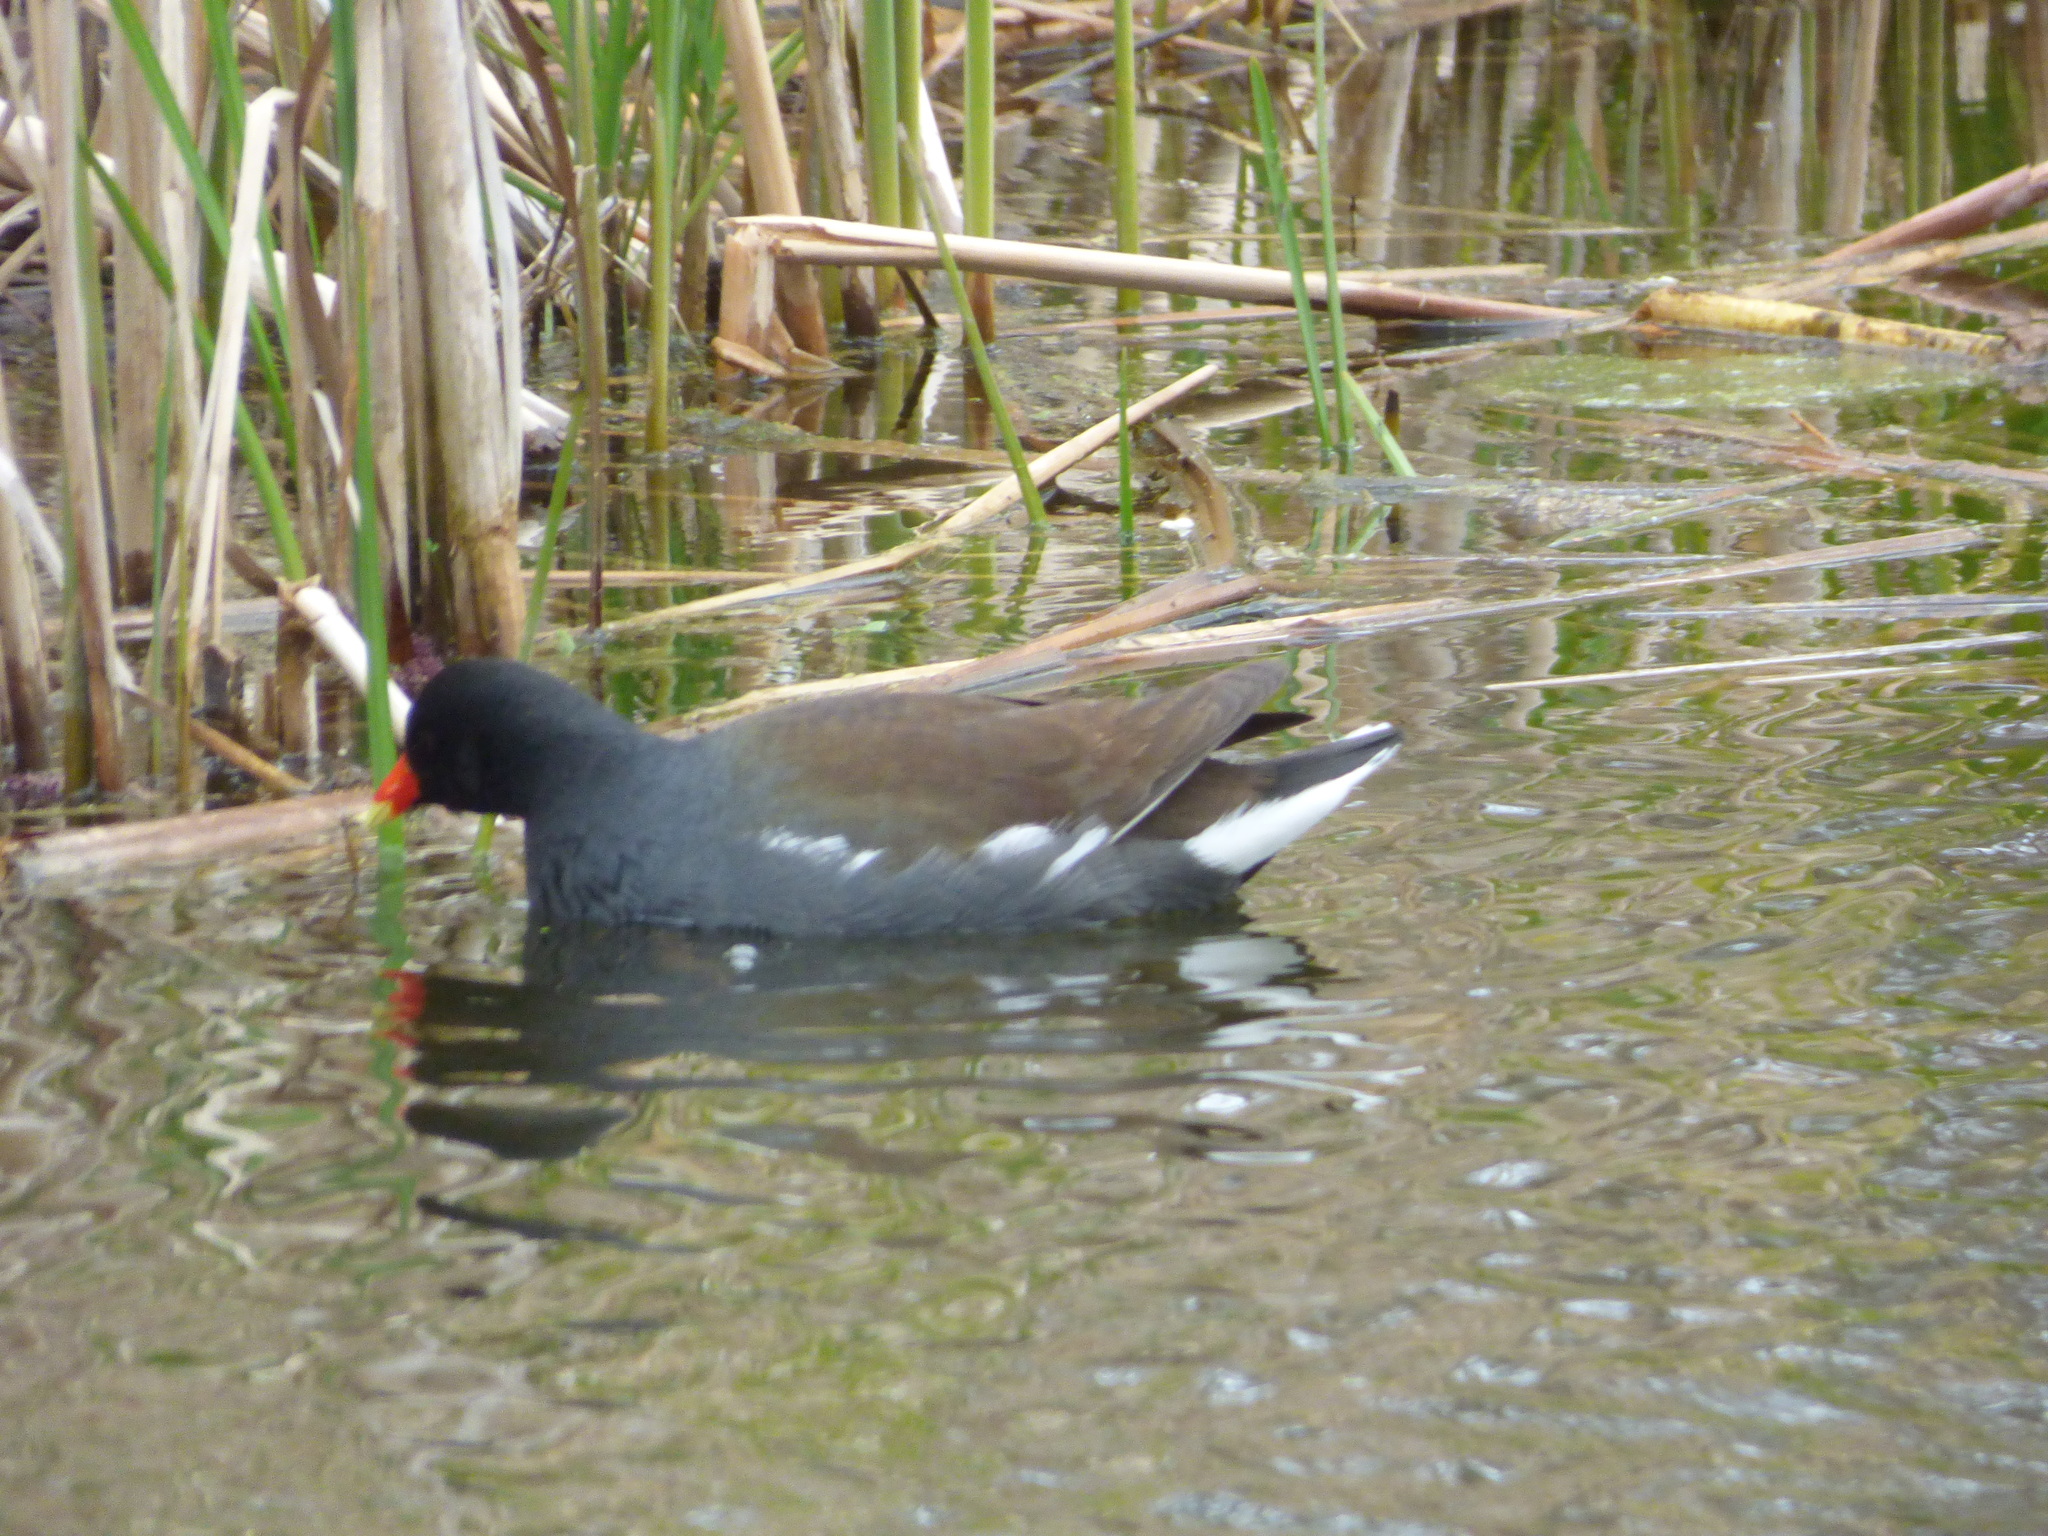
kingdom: Animalia
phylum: Chordata
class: Aves
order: Gruiformes
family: Rallidae
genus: Gallinula
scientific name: Gallinula chloropus
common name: Common moorhen
